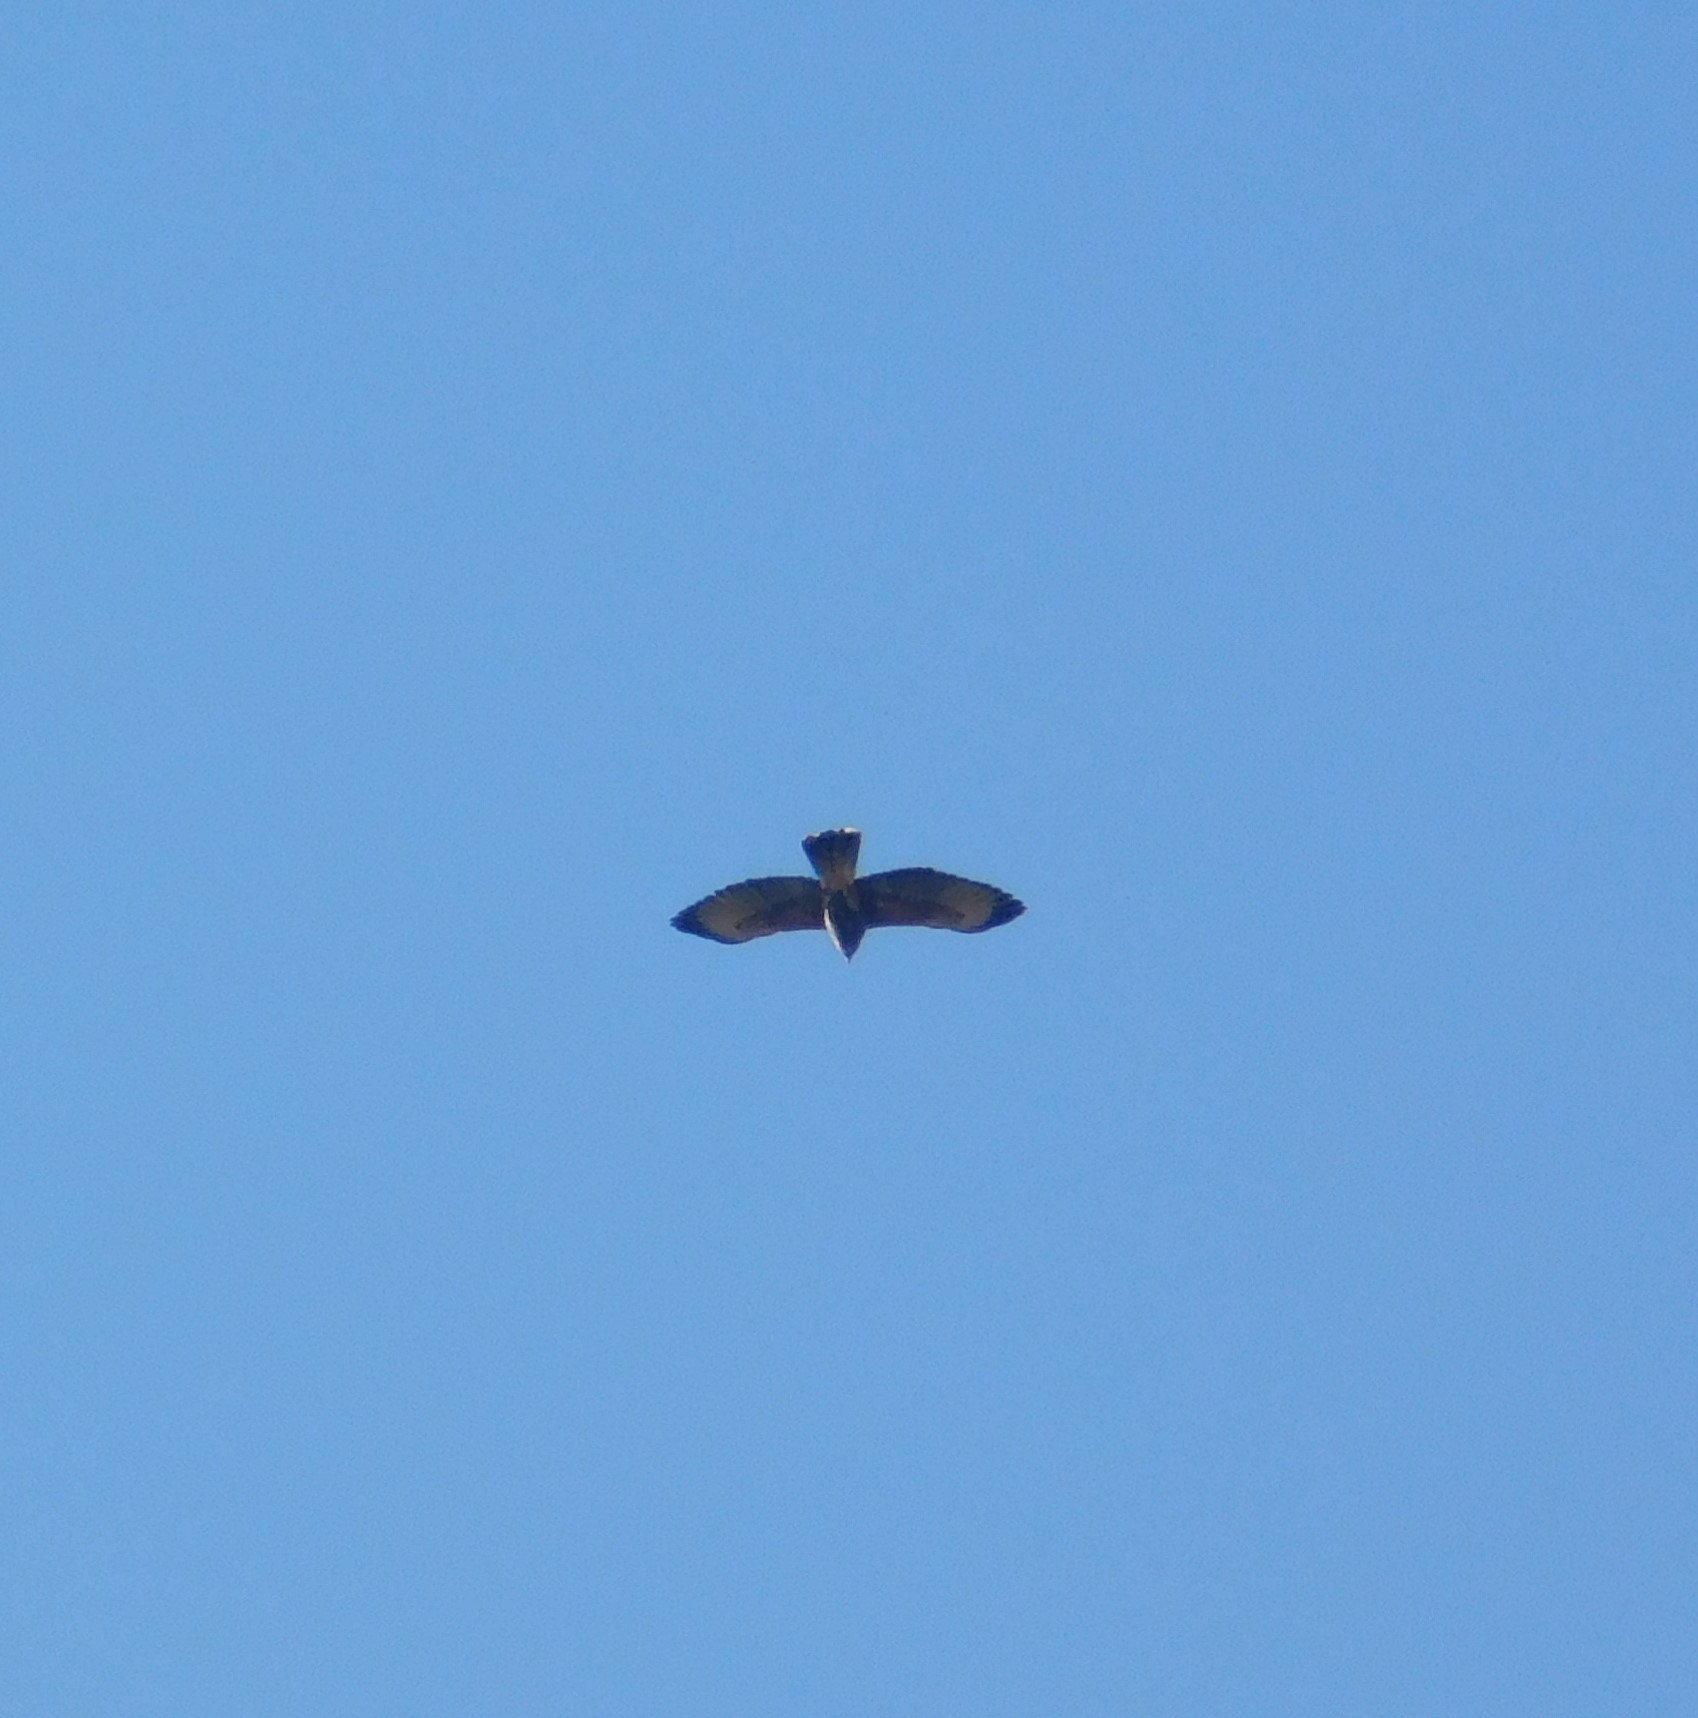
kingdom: Animalia
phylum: Chordata
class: Aves
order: Accipitriformes
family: Accipitridae
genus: Parabuteo
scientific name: Parabuteo unicinctus
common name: Harris's hawk
